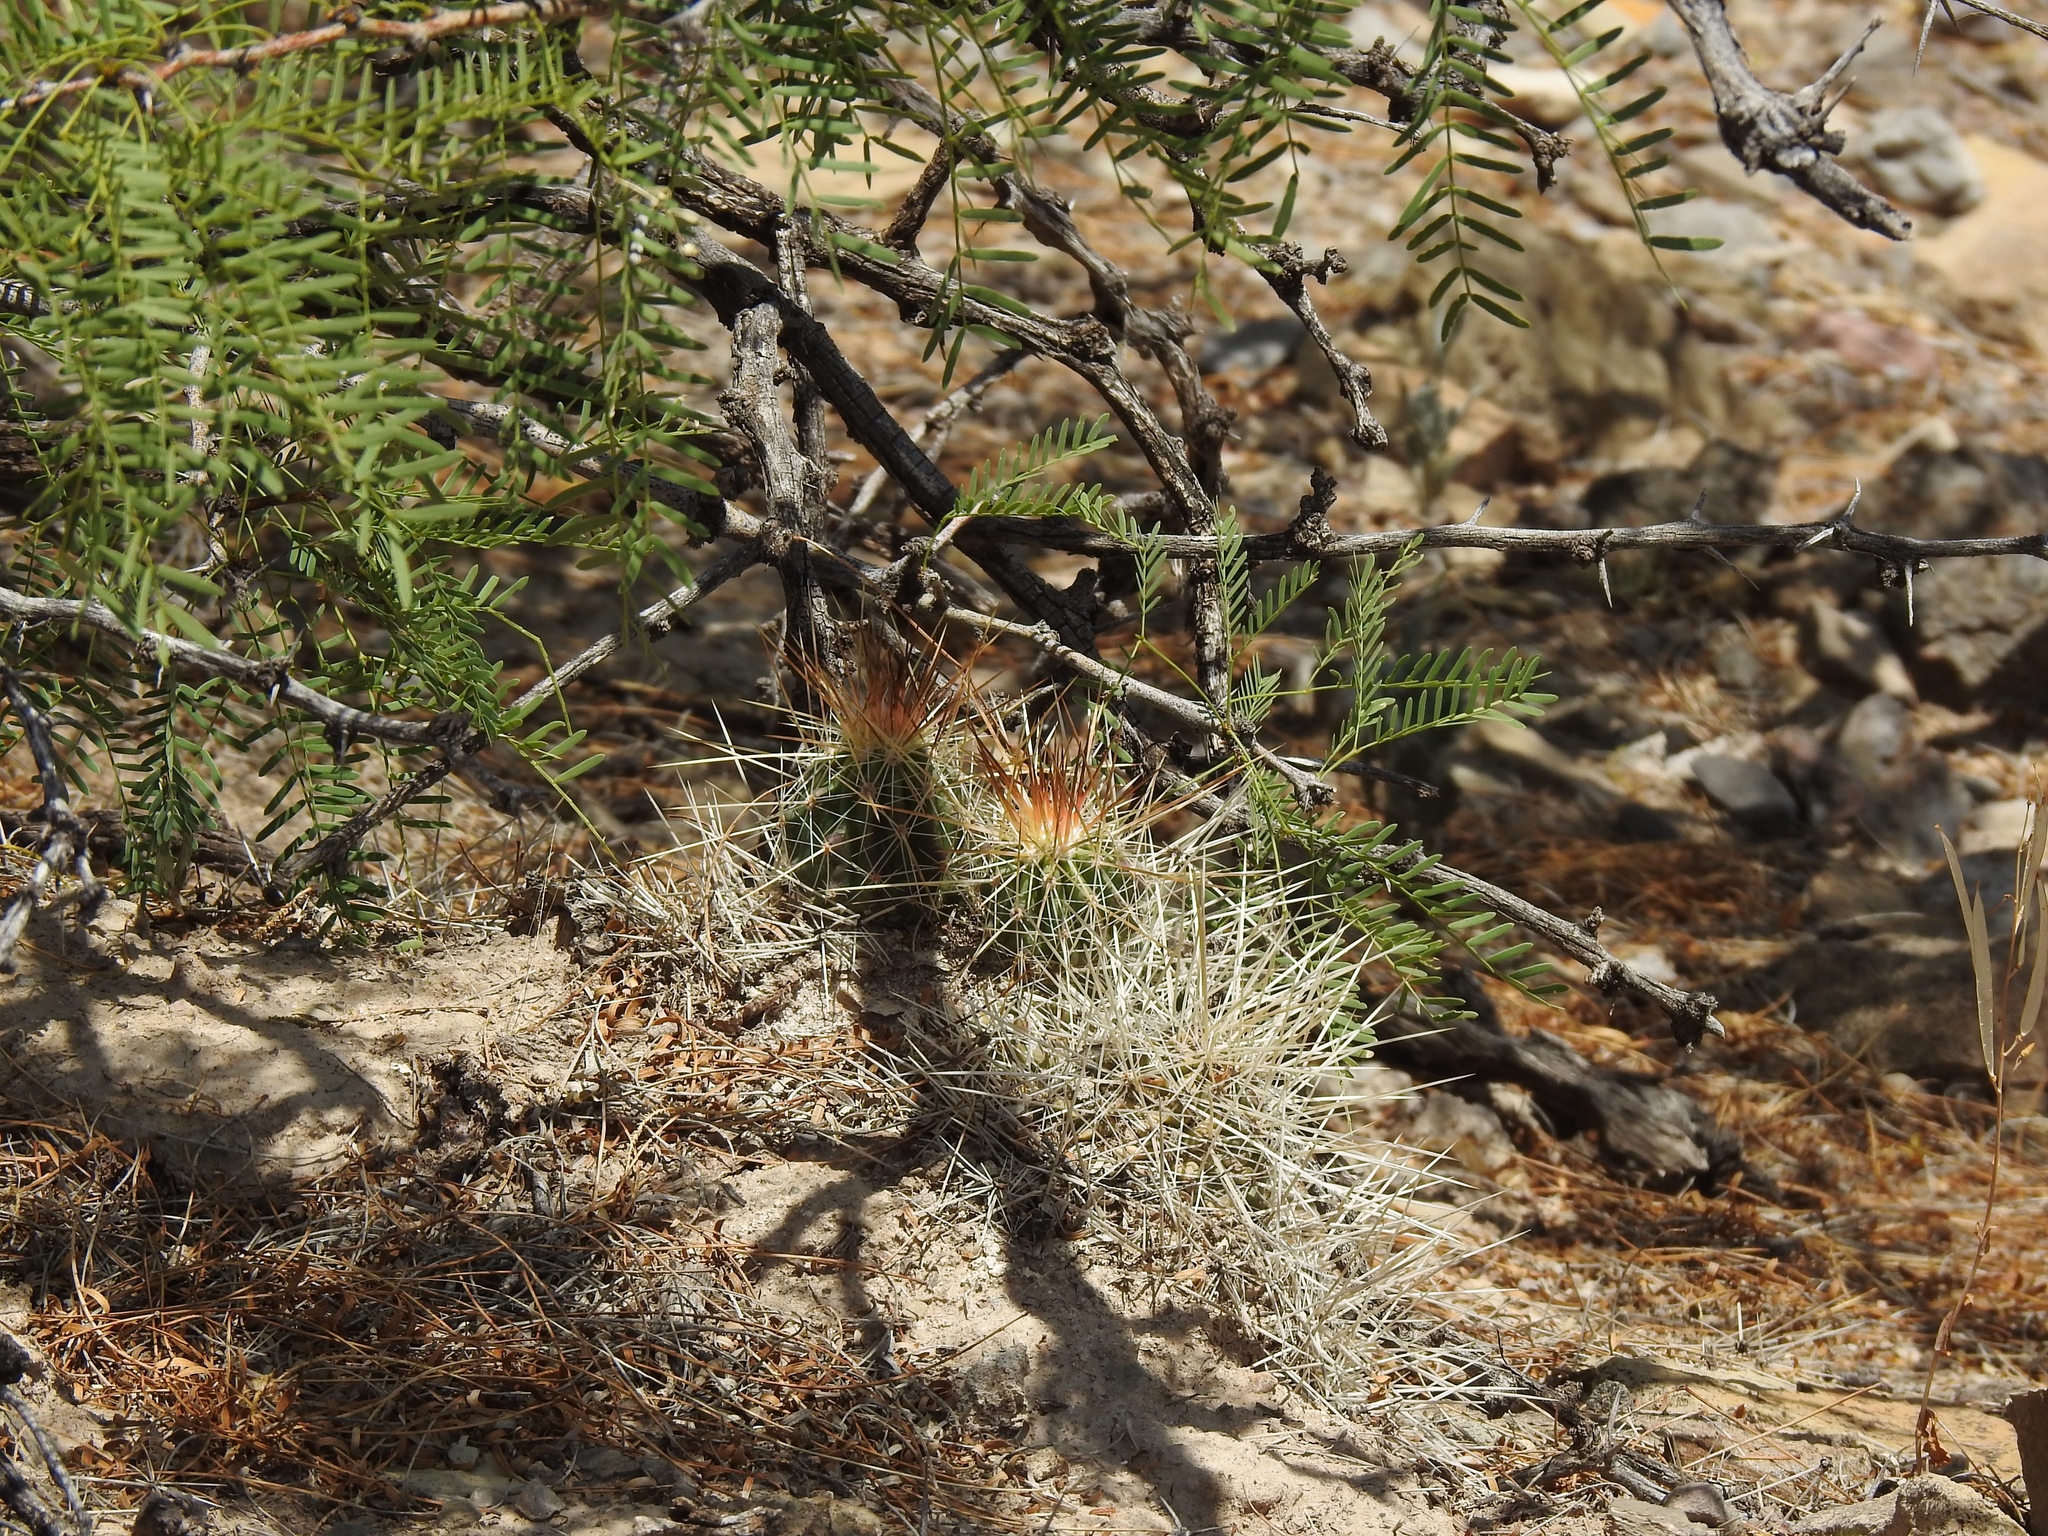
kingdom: Plantae
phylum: Tracheophyta
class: Magnoliopsida
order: Caryophyllales
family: Cactaceae
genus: Echinocereus
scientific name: Echinocereus stramineus
